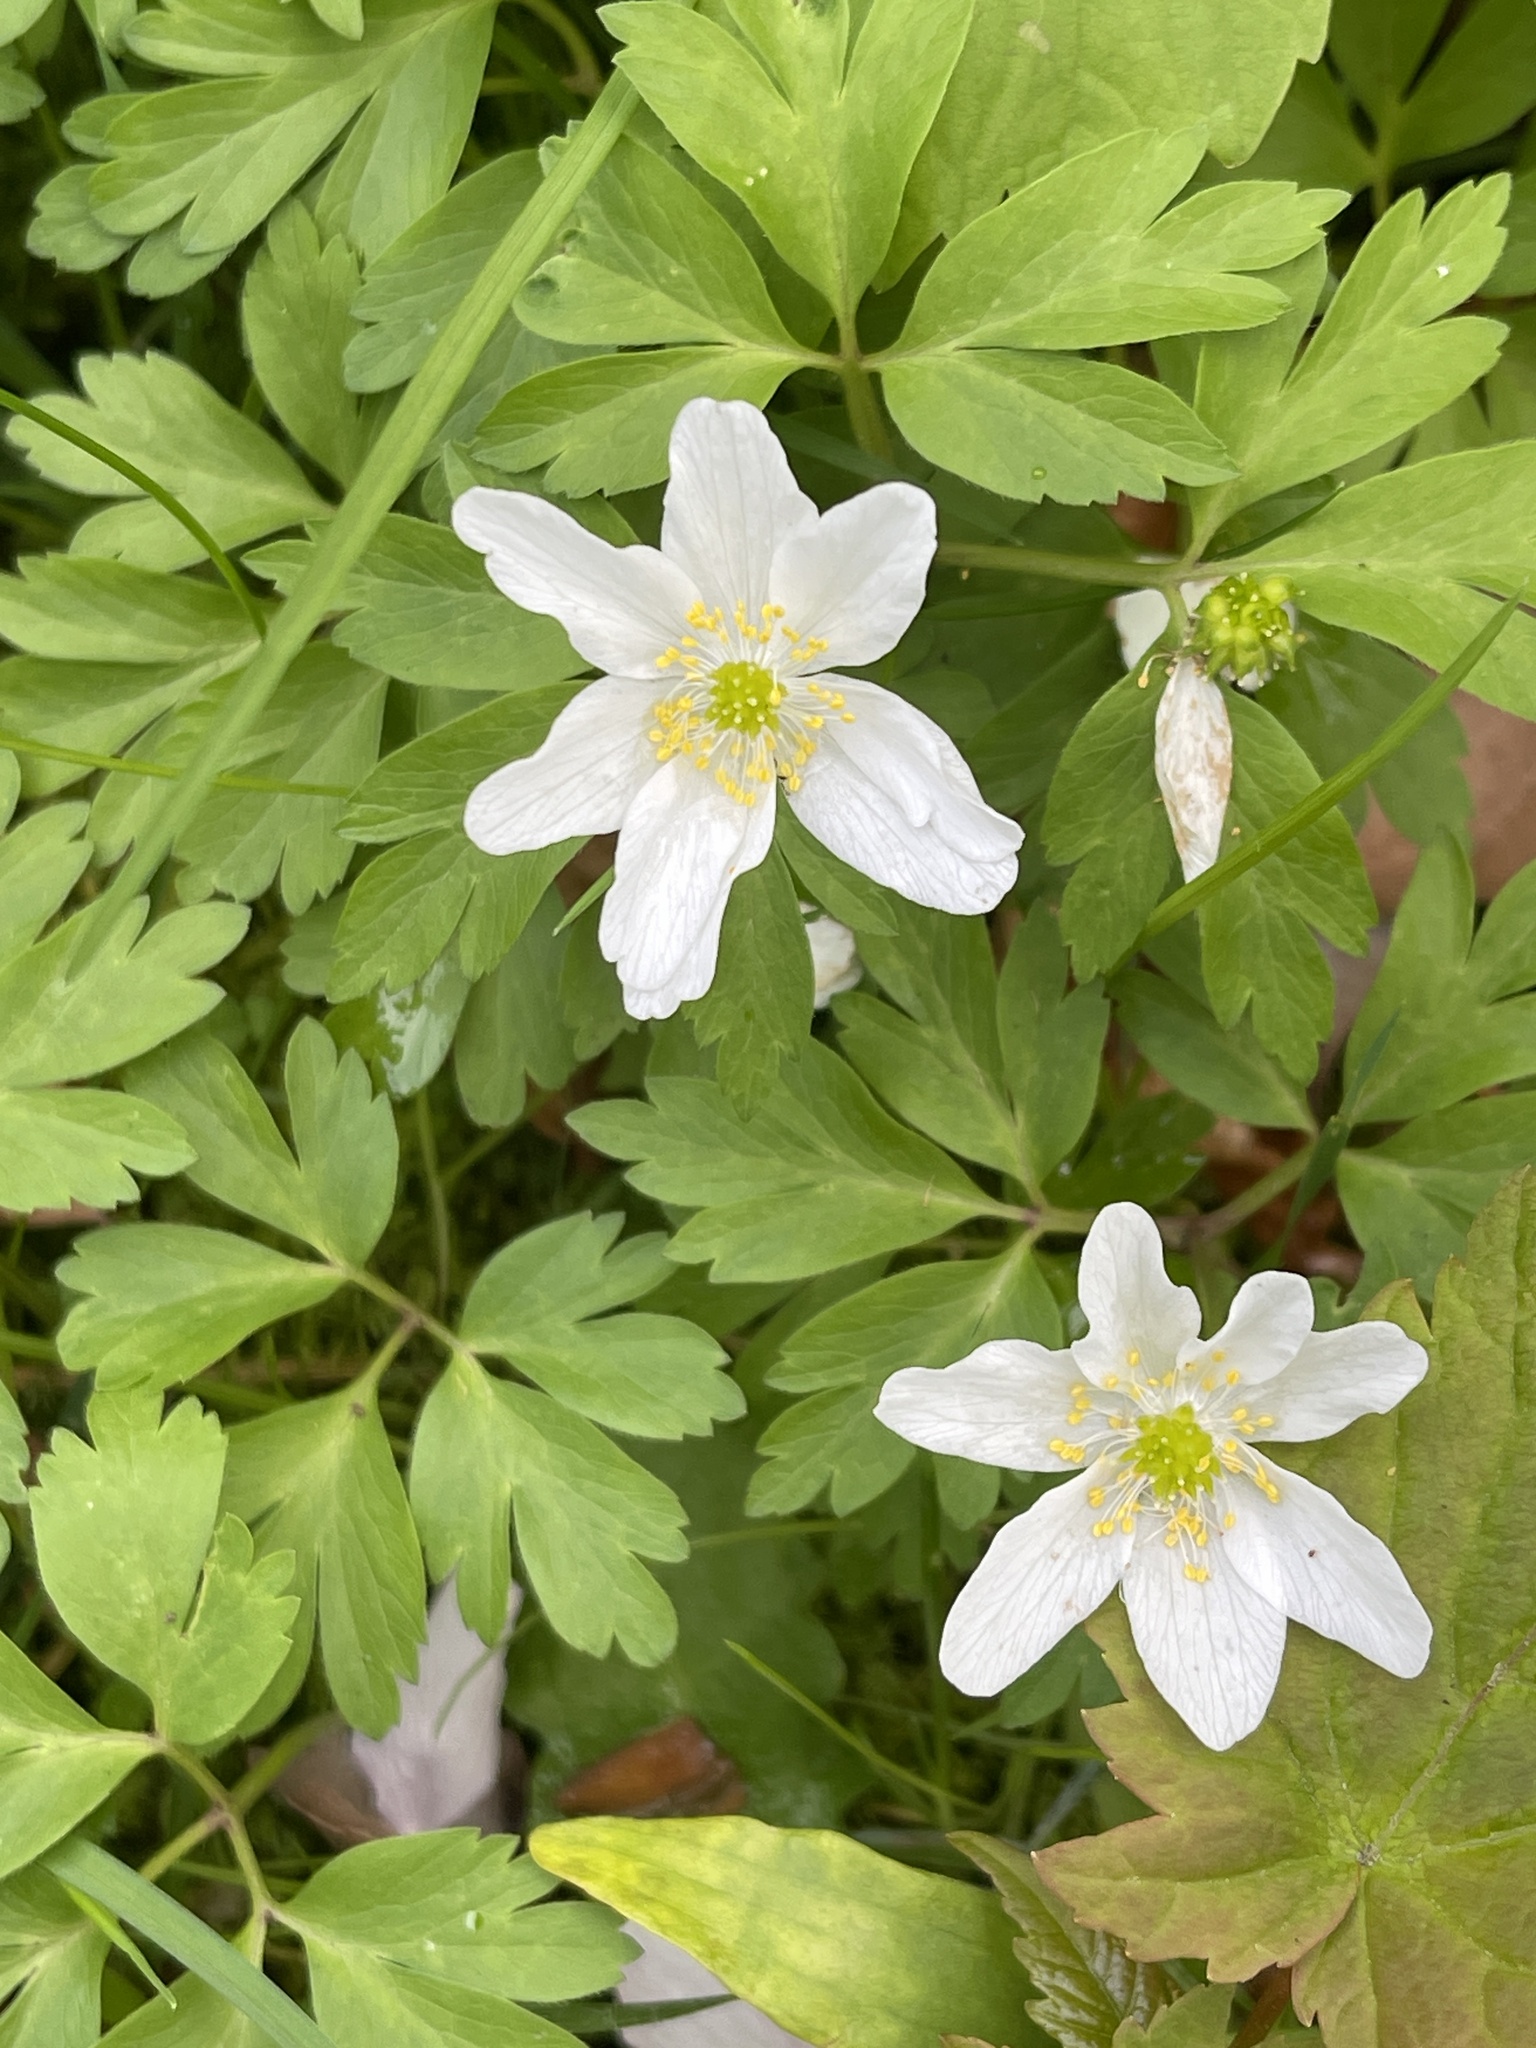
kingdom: Plantae
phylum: Tracheophyta
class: Magnoliopsida
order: Ranunculales
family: Ranunculaceae
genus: Anemone
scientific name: Anemone nemorosa
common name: Wood anemone
